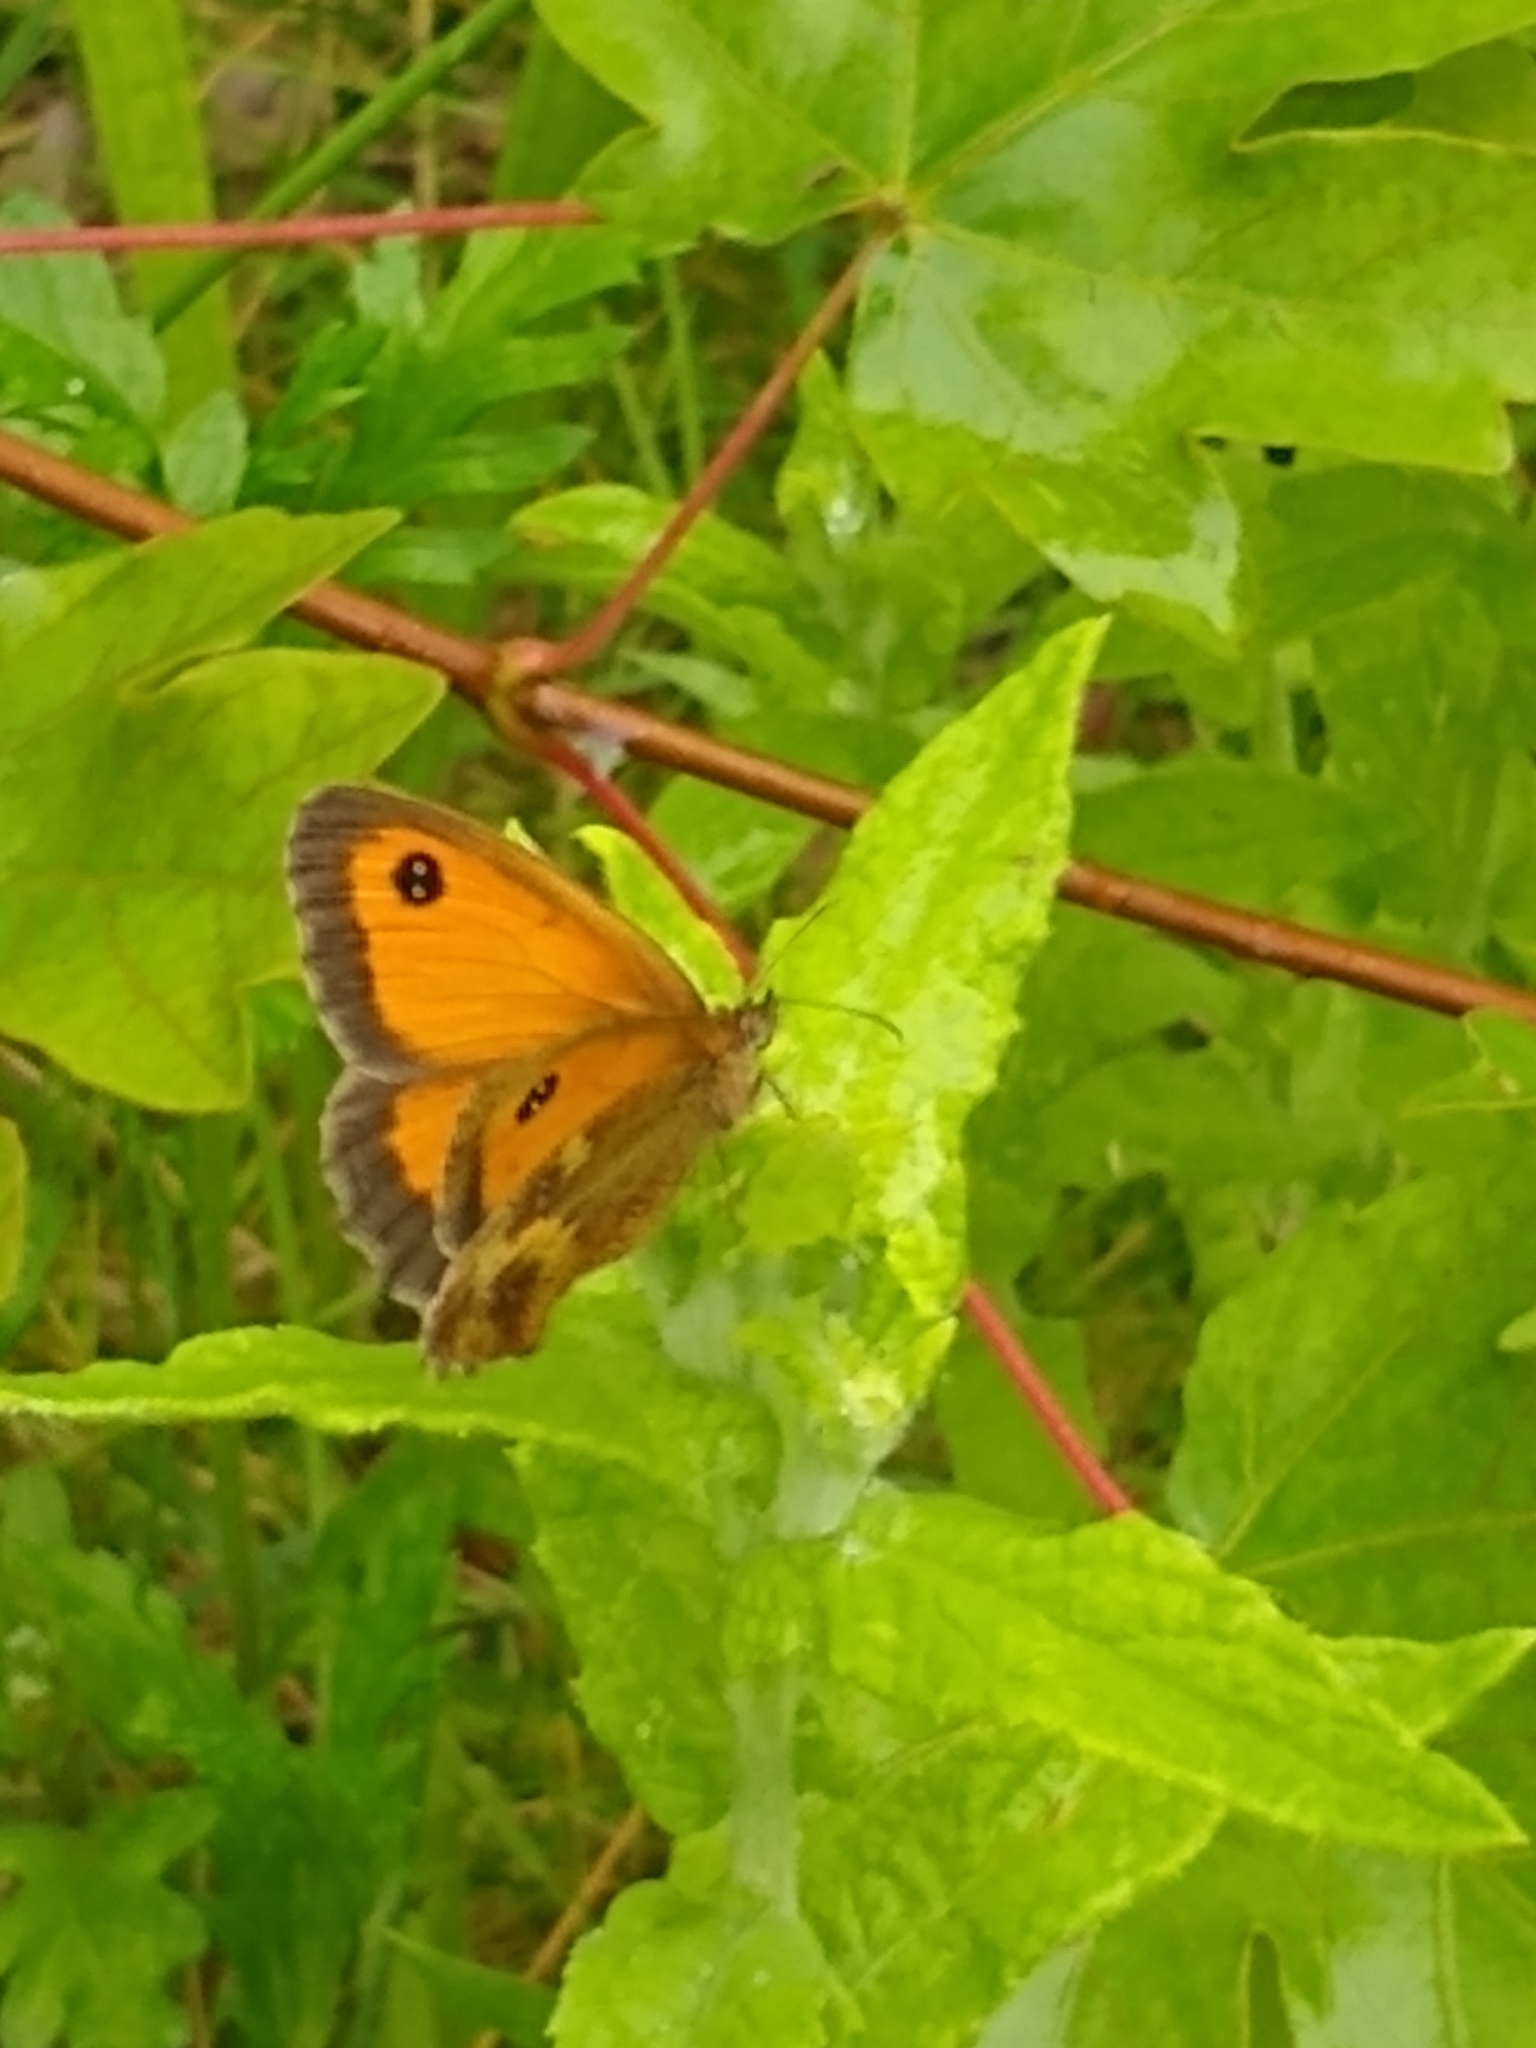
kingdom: Animalia
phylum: Arthropoda
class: Insecta
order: Lepidoptera
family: Nymphalidae
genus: Pyronia
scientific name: Pyronia tithonus
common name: Gatekeeper
